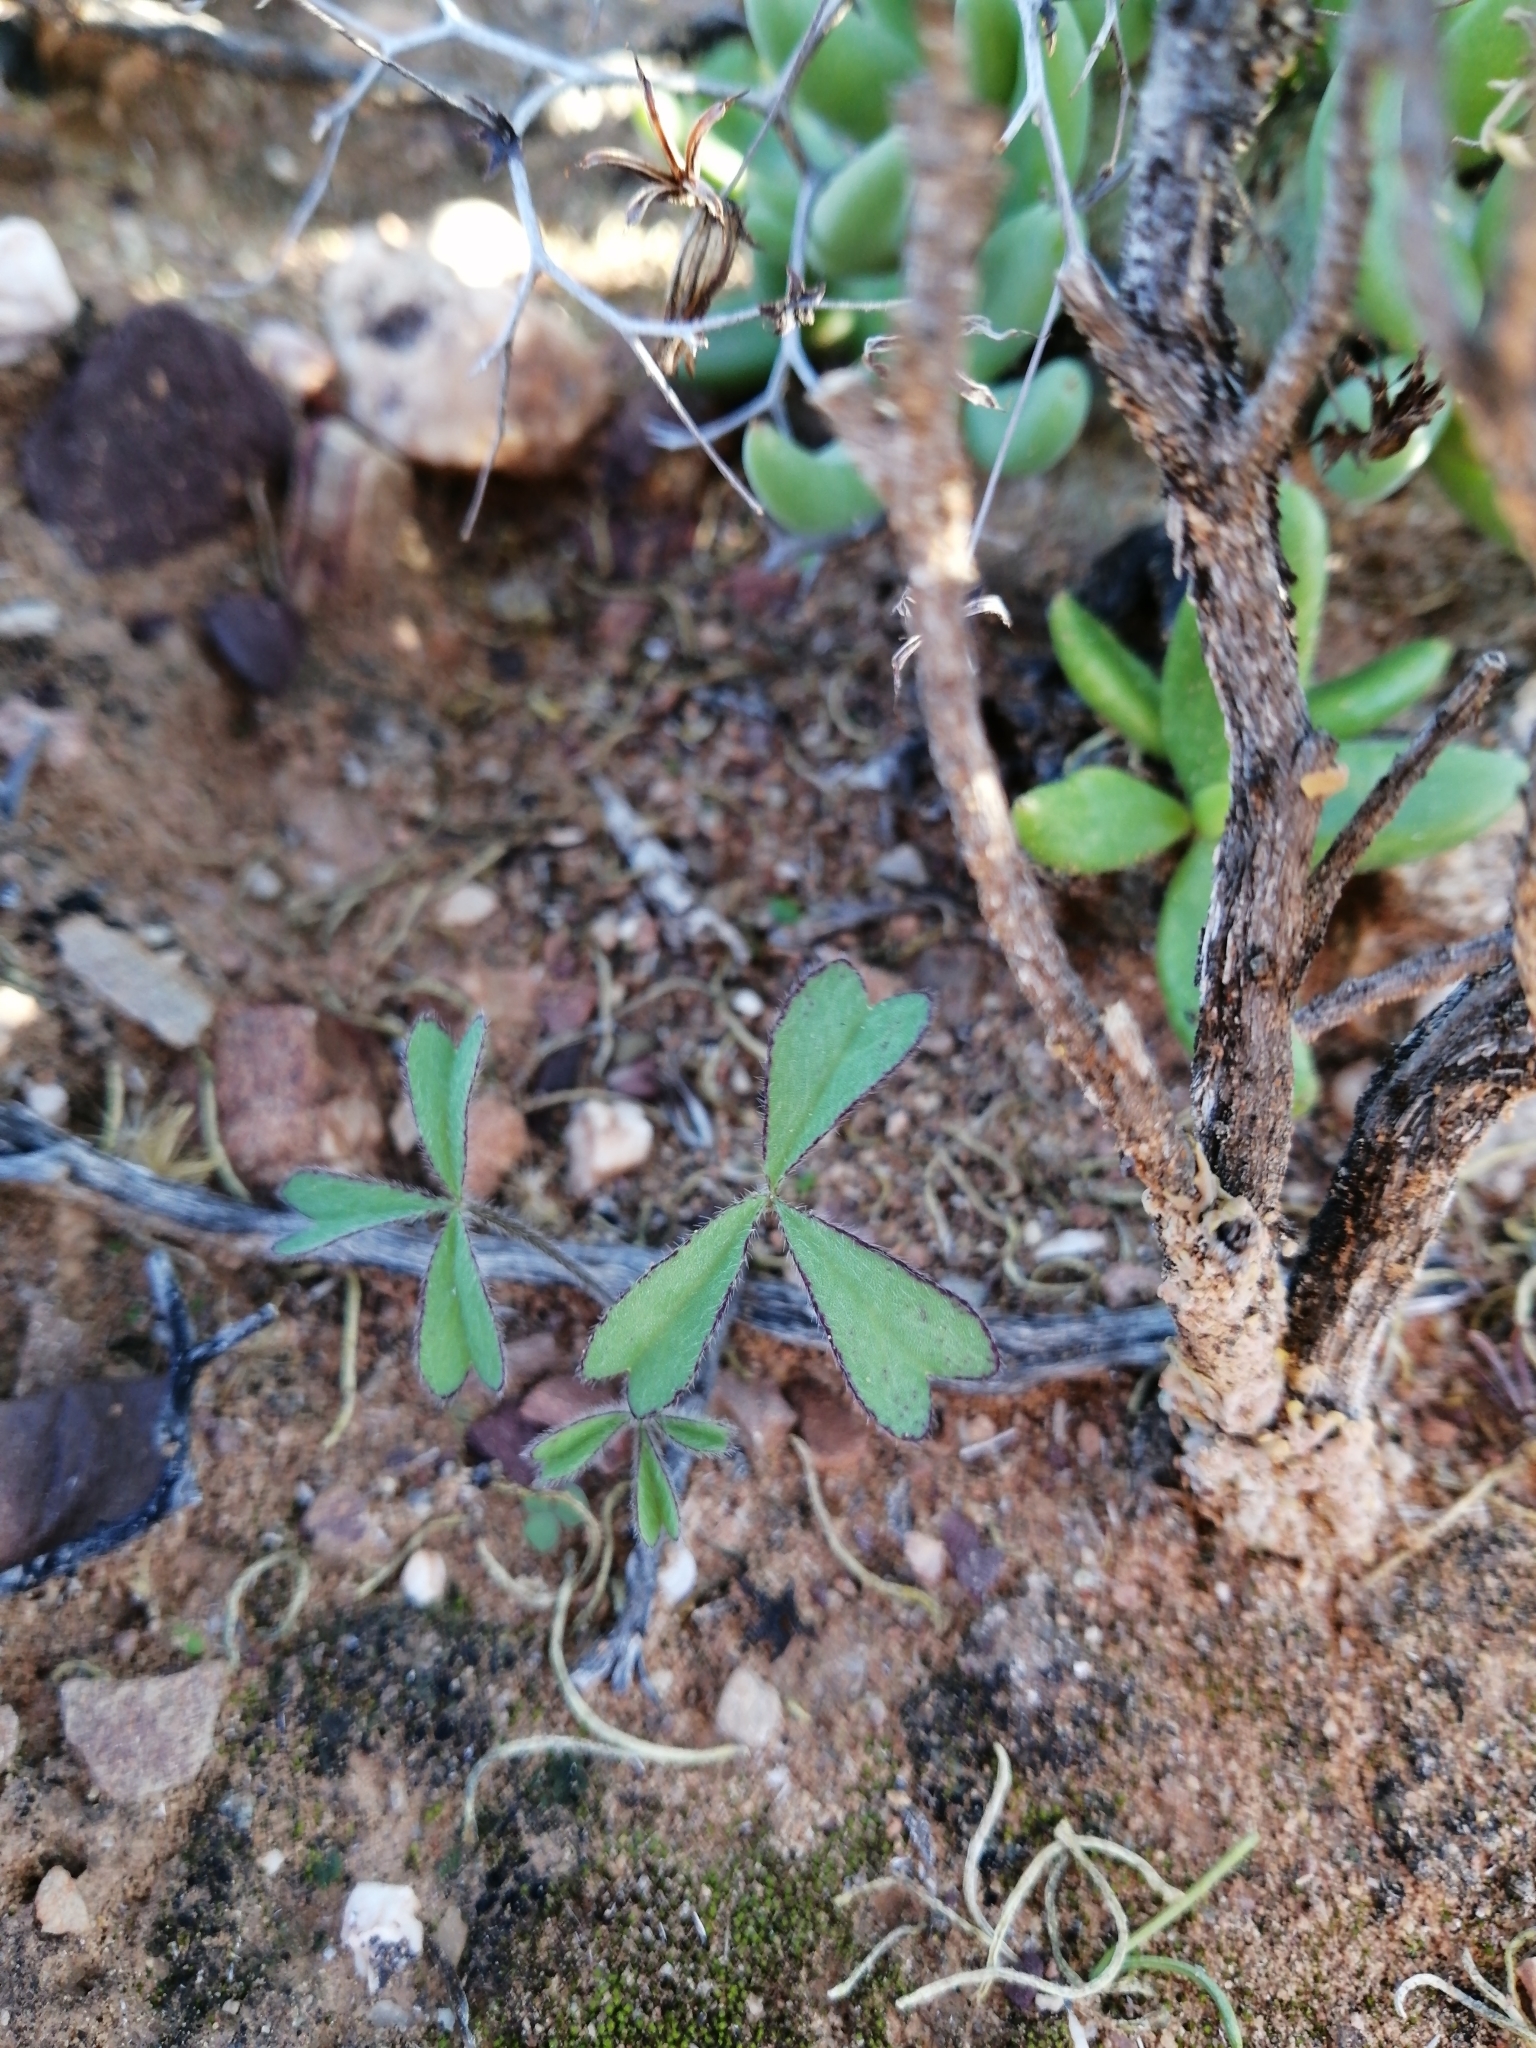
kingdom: Plantae
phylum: Tracheophyta
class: Magnoliopsida
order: Oxalidales
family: Oxalidaceae
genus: Oxalis
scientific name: Oxalis obtusa
